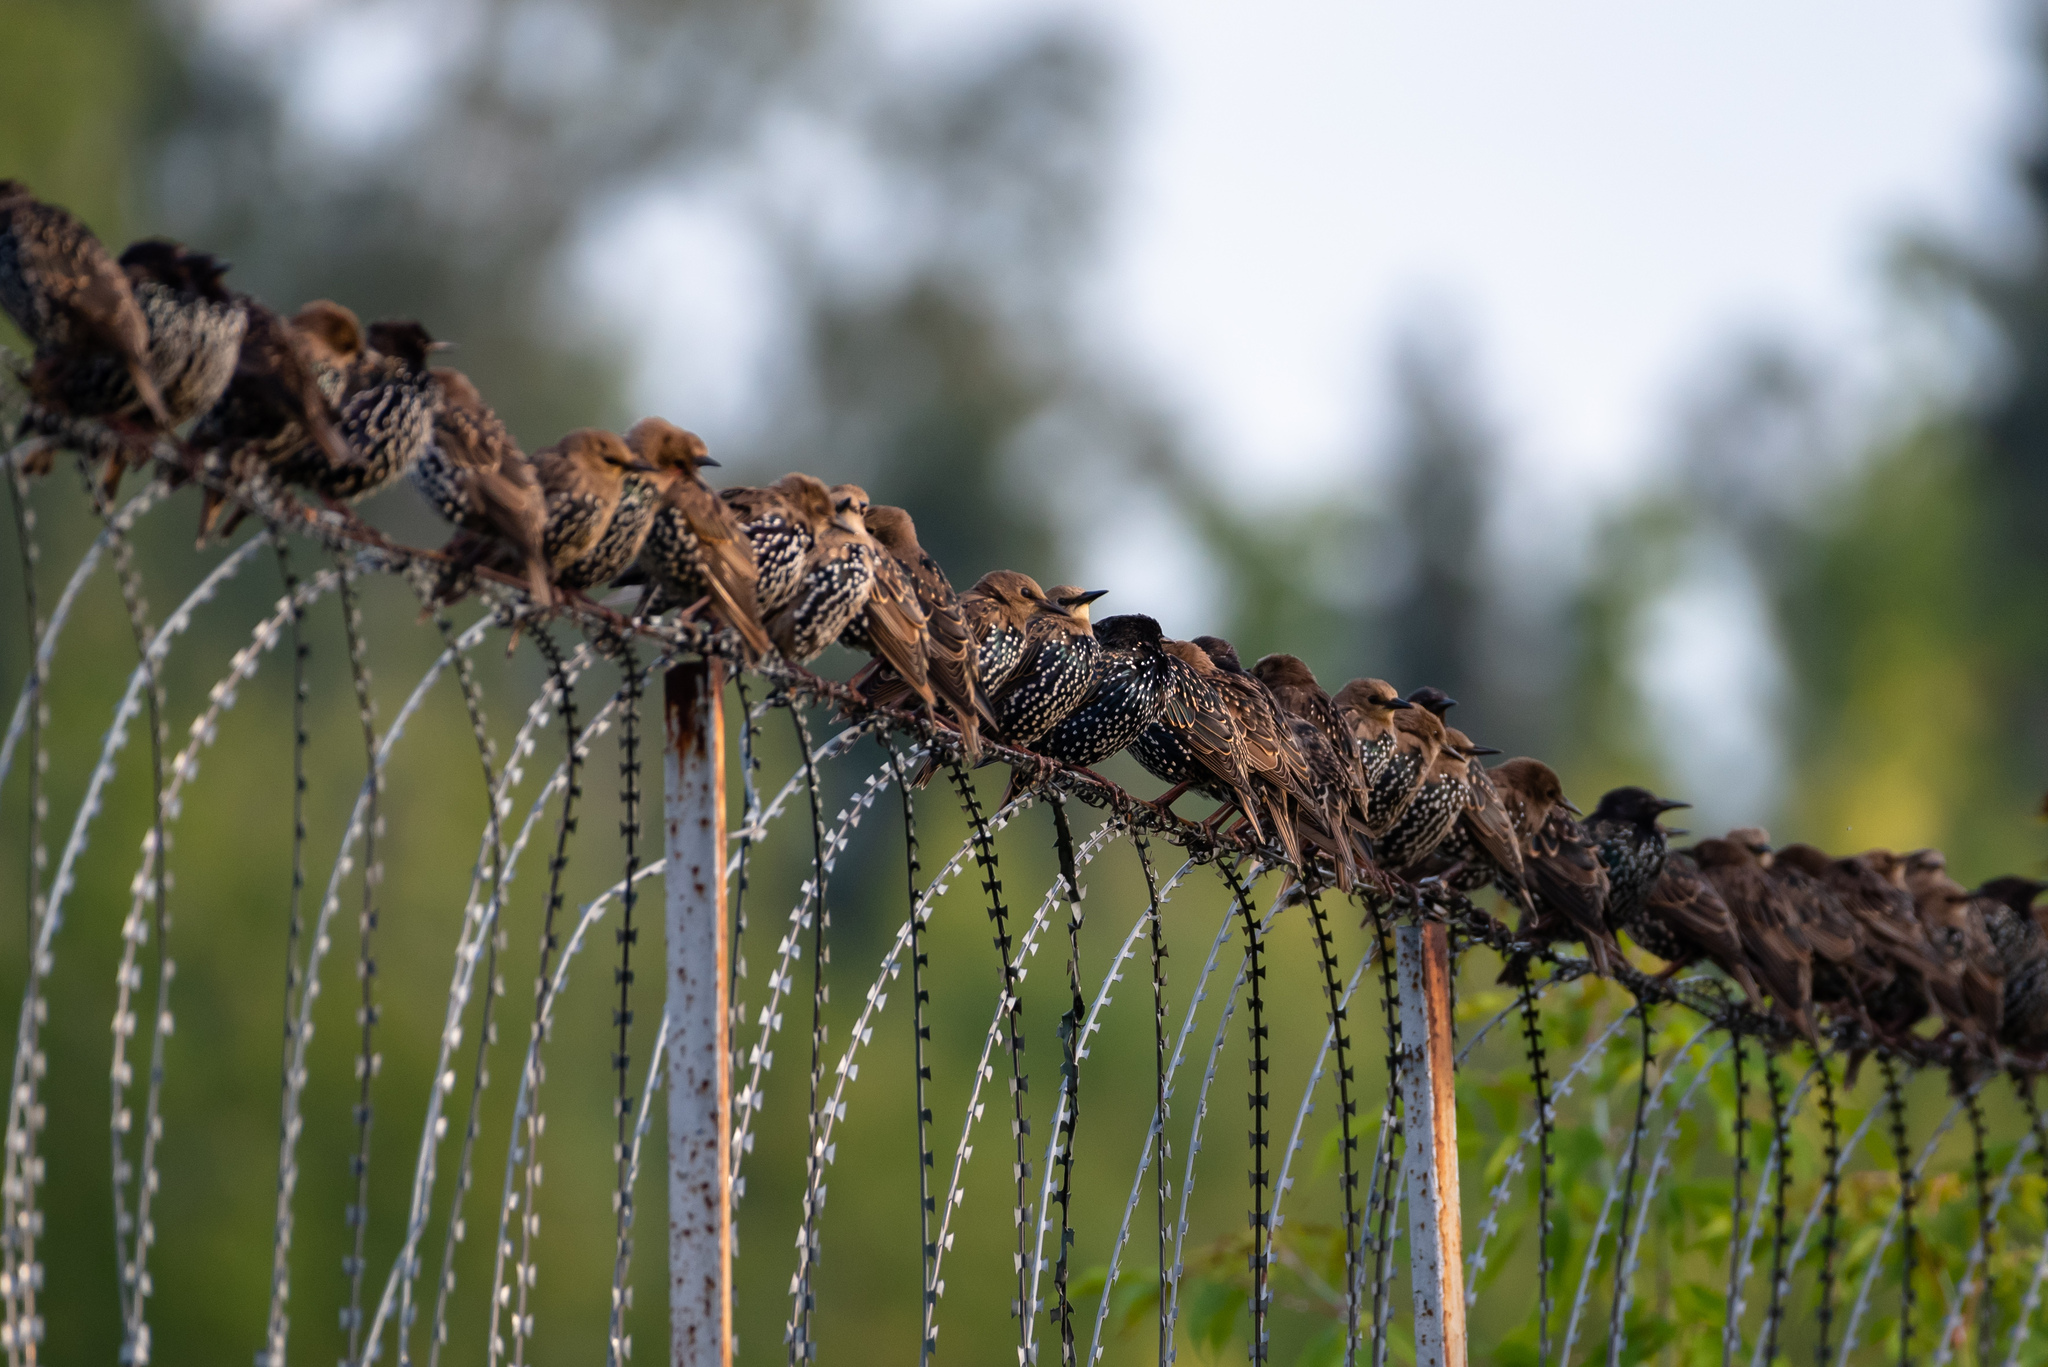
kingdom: Animalia
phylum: Chordata
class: Aves
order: Passeriformes
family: Sturnidae
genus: Sturnus
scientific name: Sturnus vulgaris
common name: Common starling
